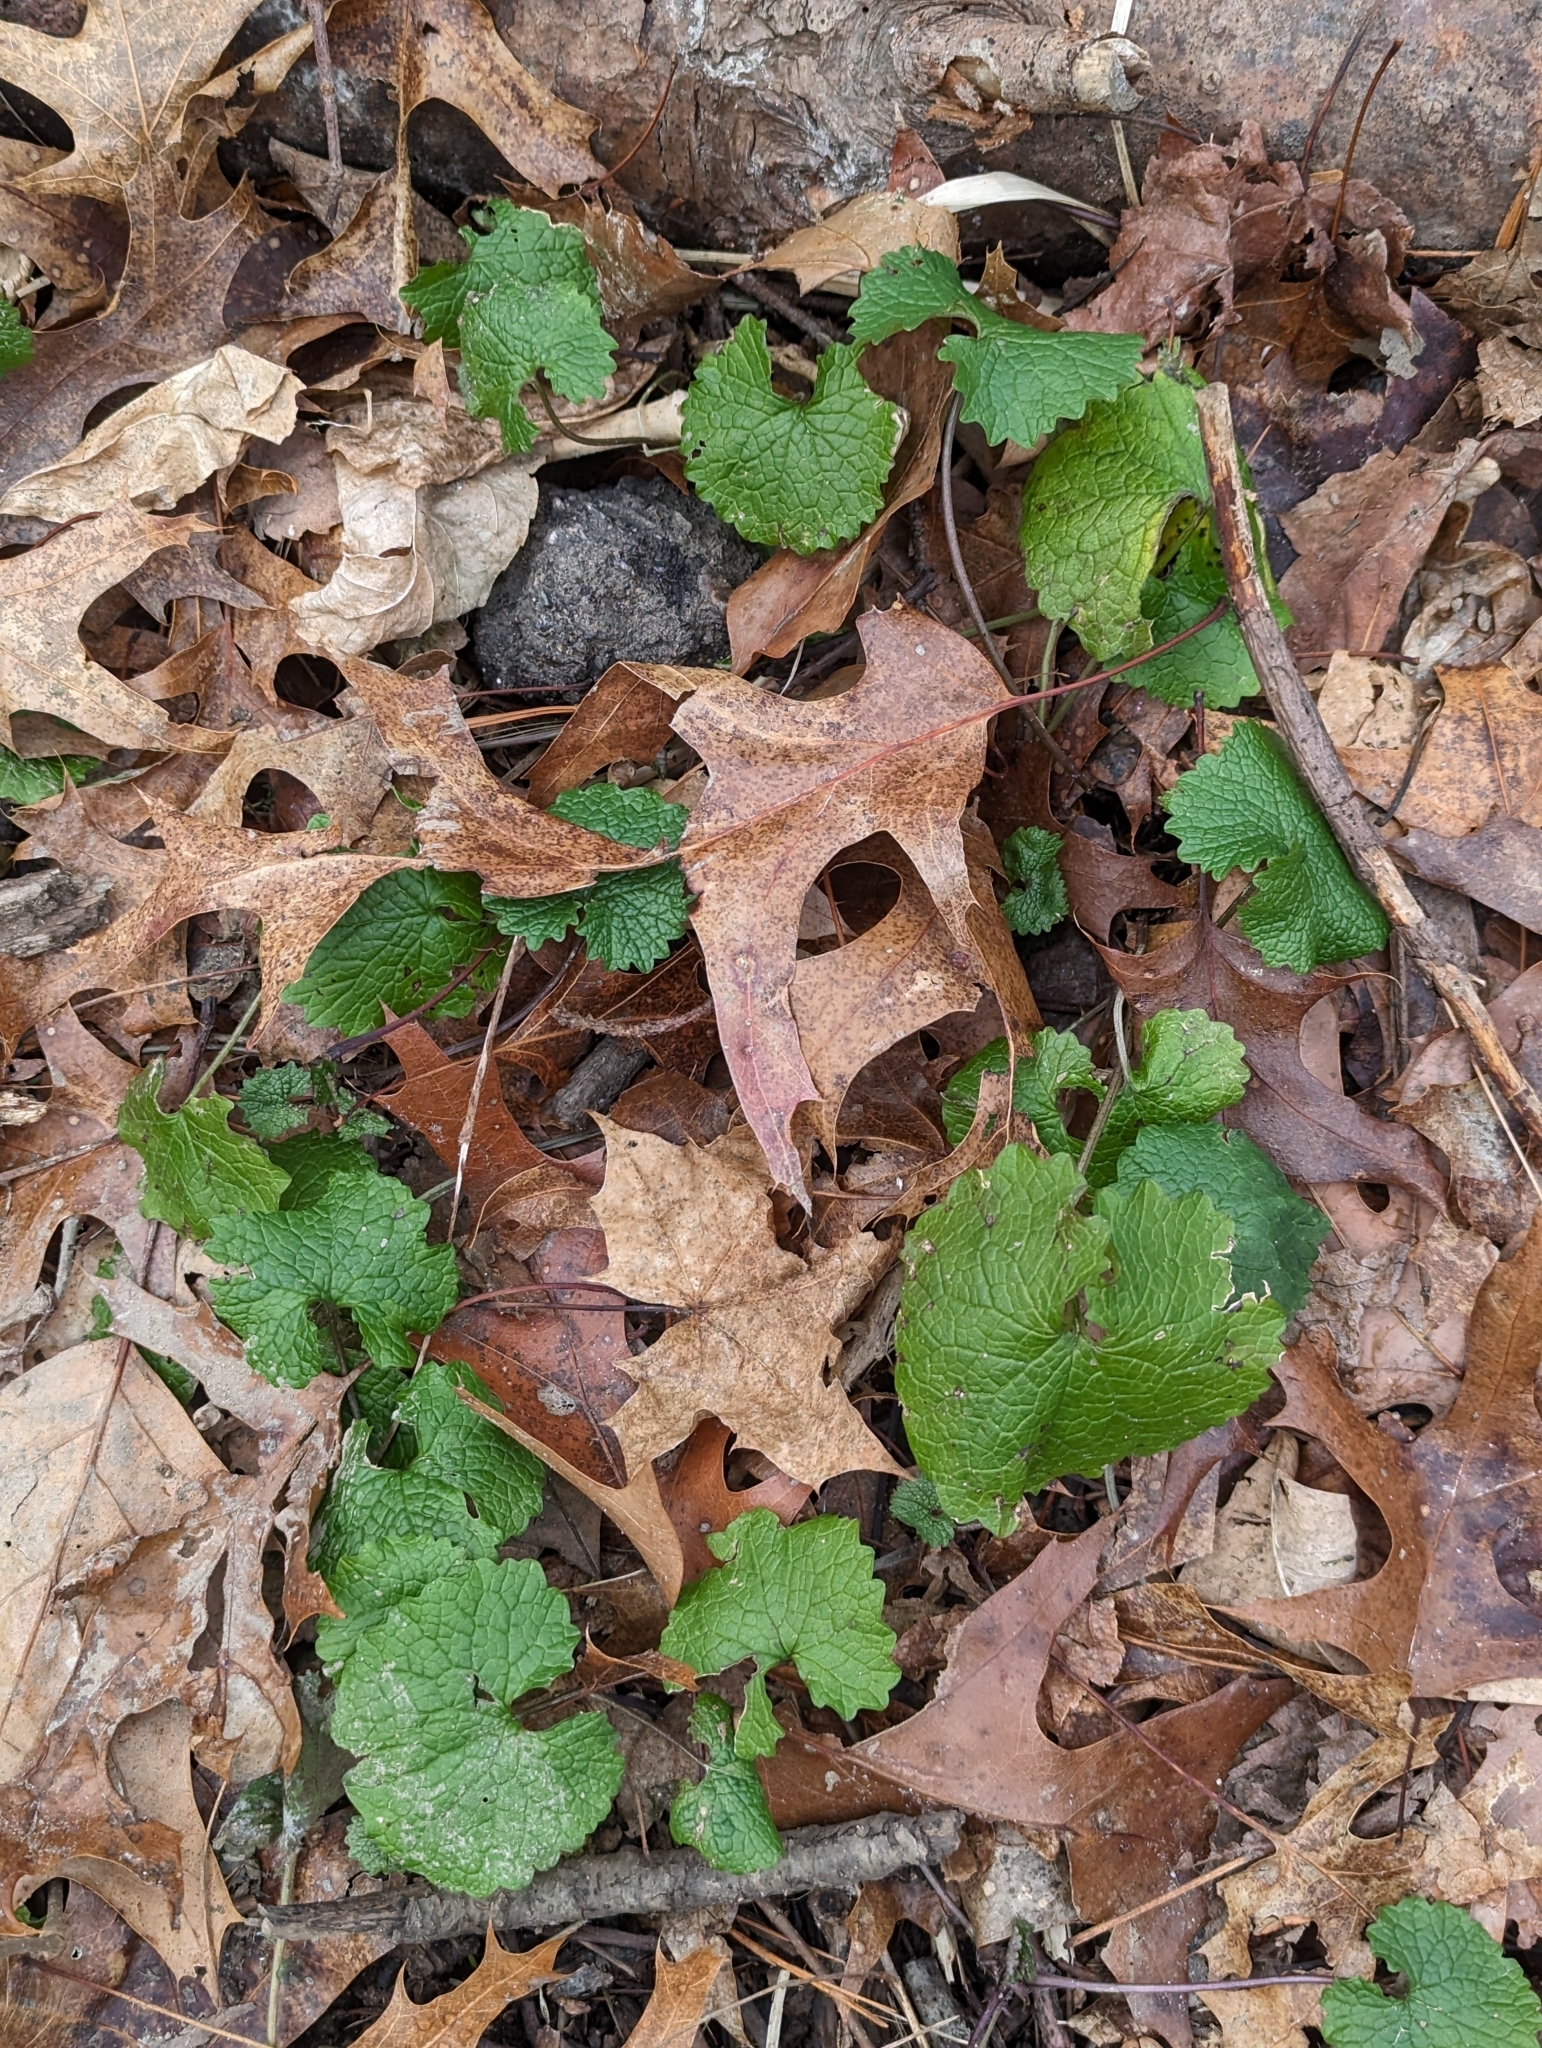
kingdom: Plantae
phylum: Tracheophyta
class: Magnoliopsida
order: Brassicales
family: Brassicaceae
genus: Alliaria
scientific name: Alliaria petiolata
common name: Garlic mustard
